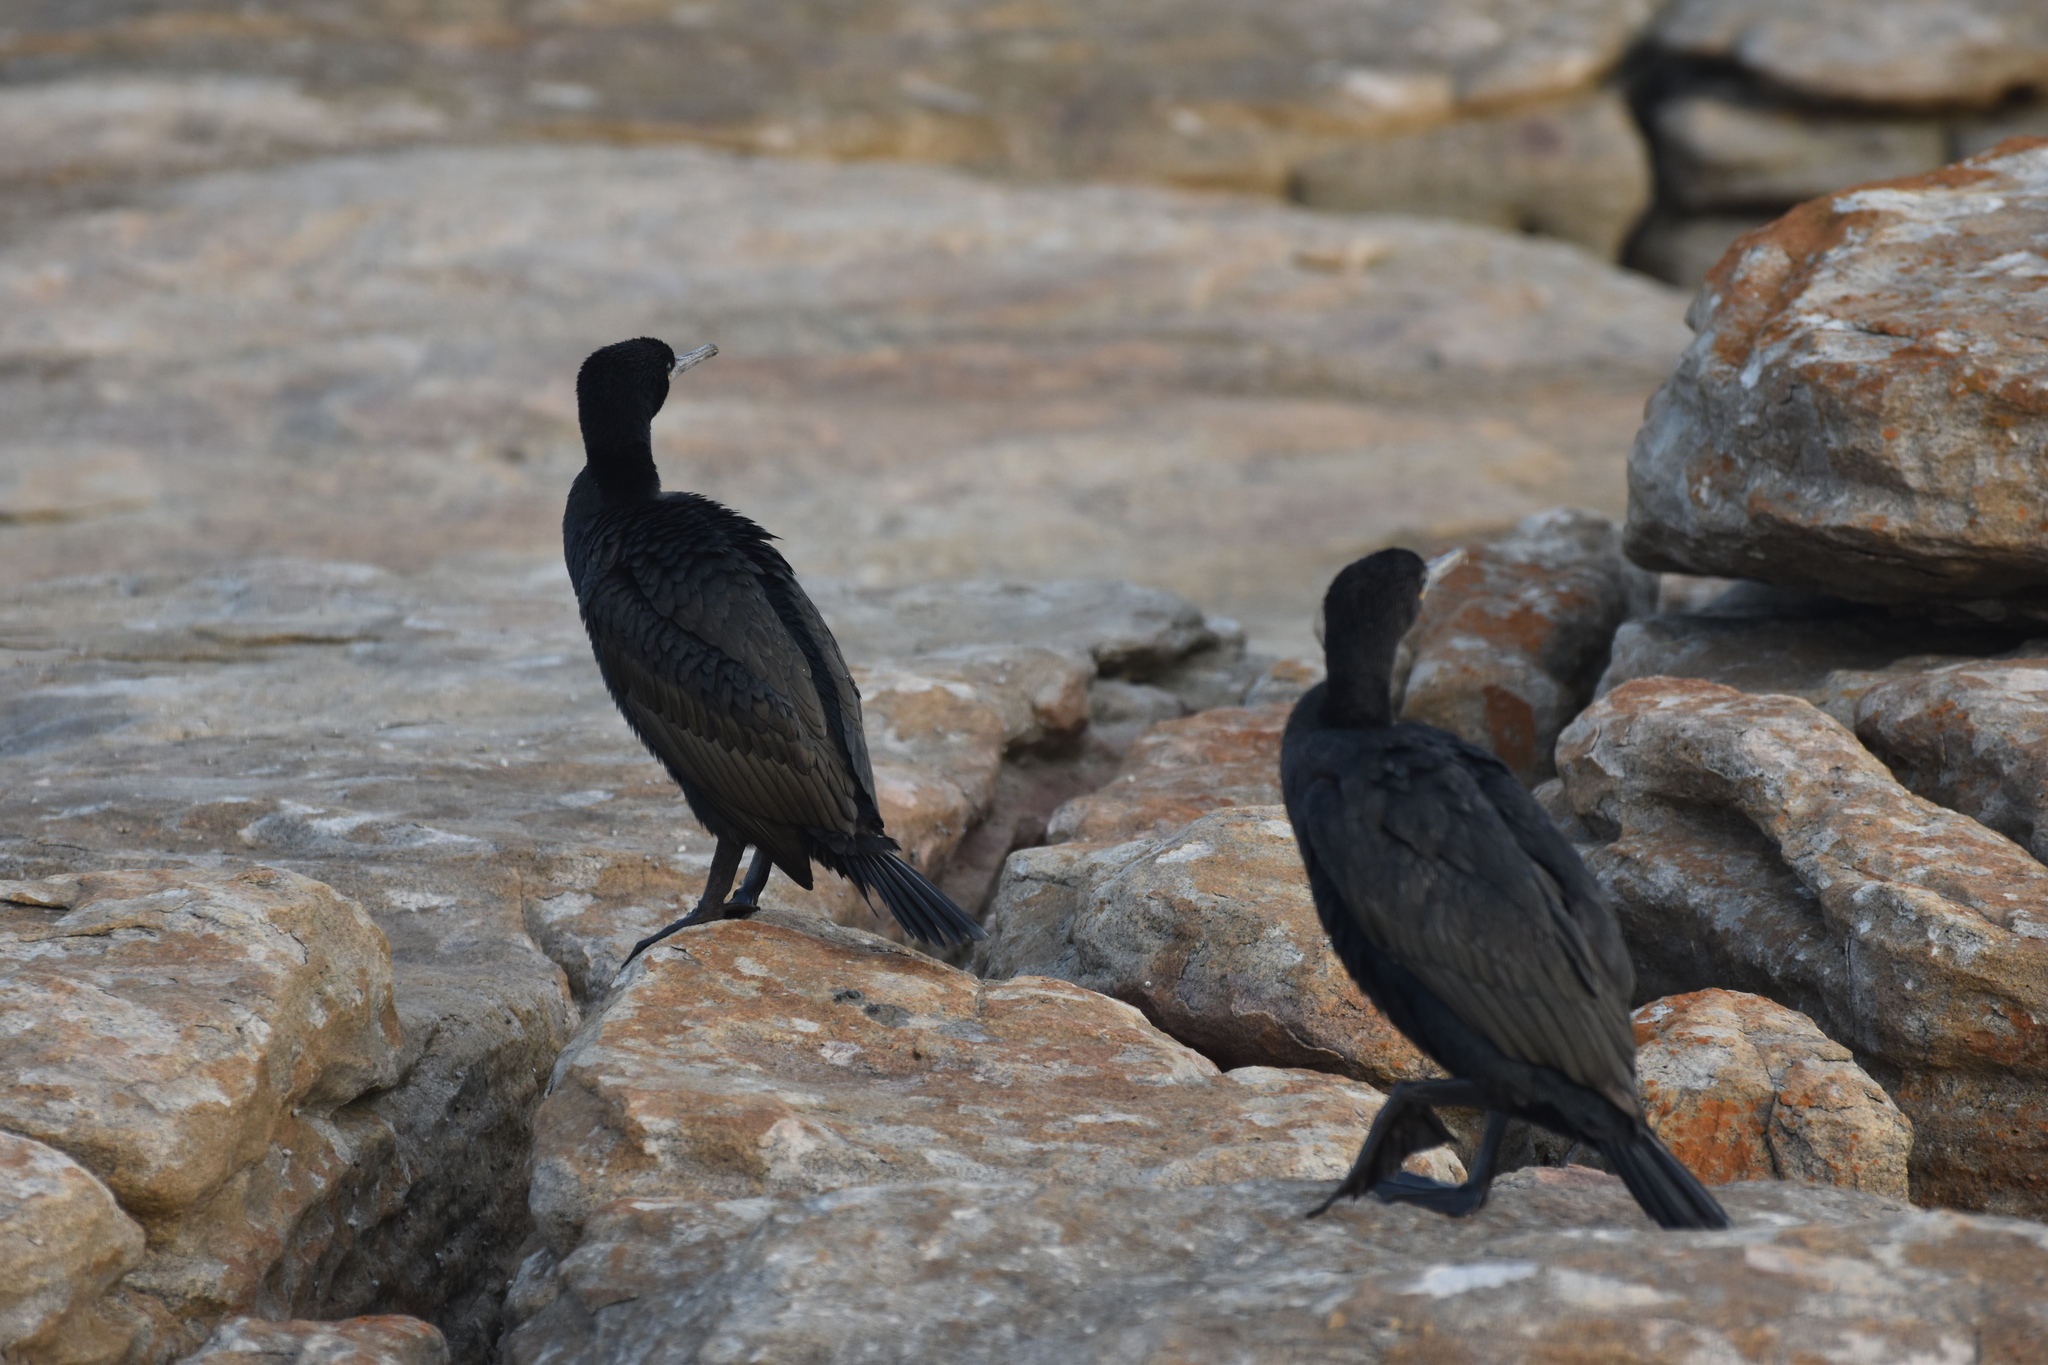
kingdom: Animalia
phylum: Chordata
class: Aves
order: Suliformes
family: Phalacrocoracidae
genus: Phalacrocorax
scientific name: Phalacrocorax capensis
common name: Cape cormorant
